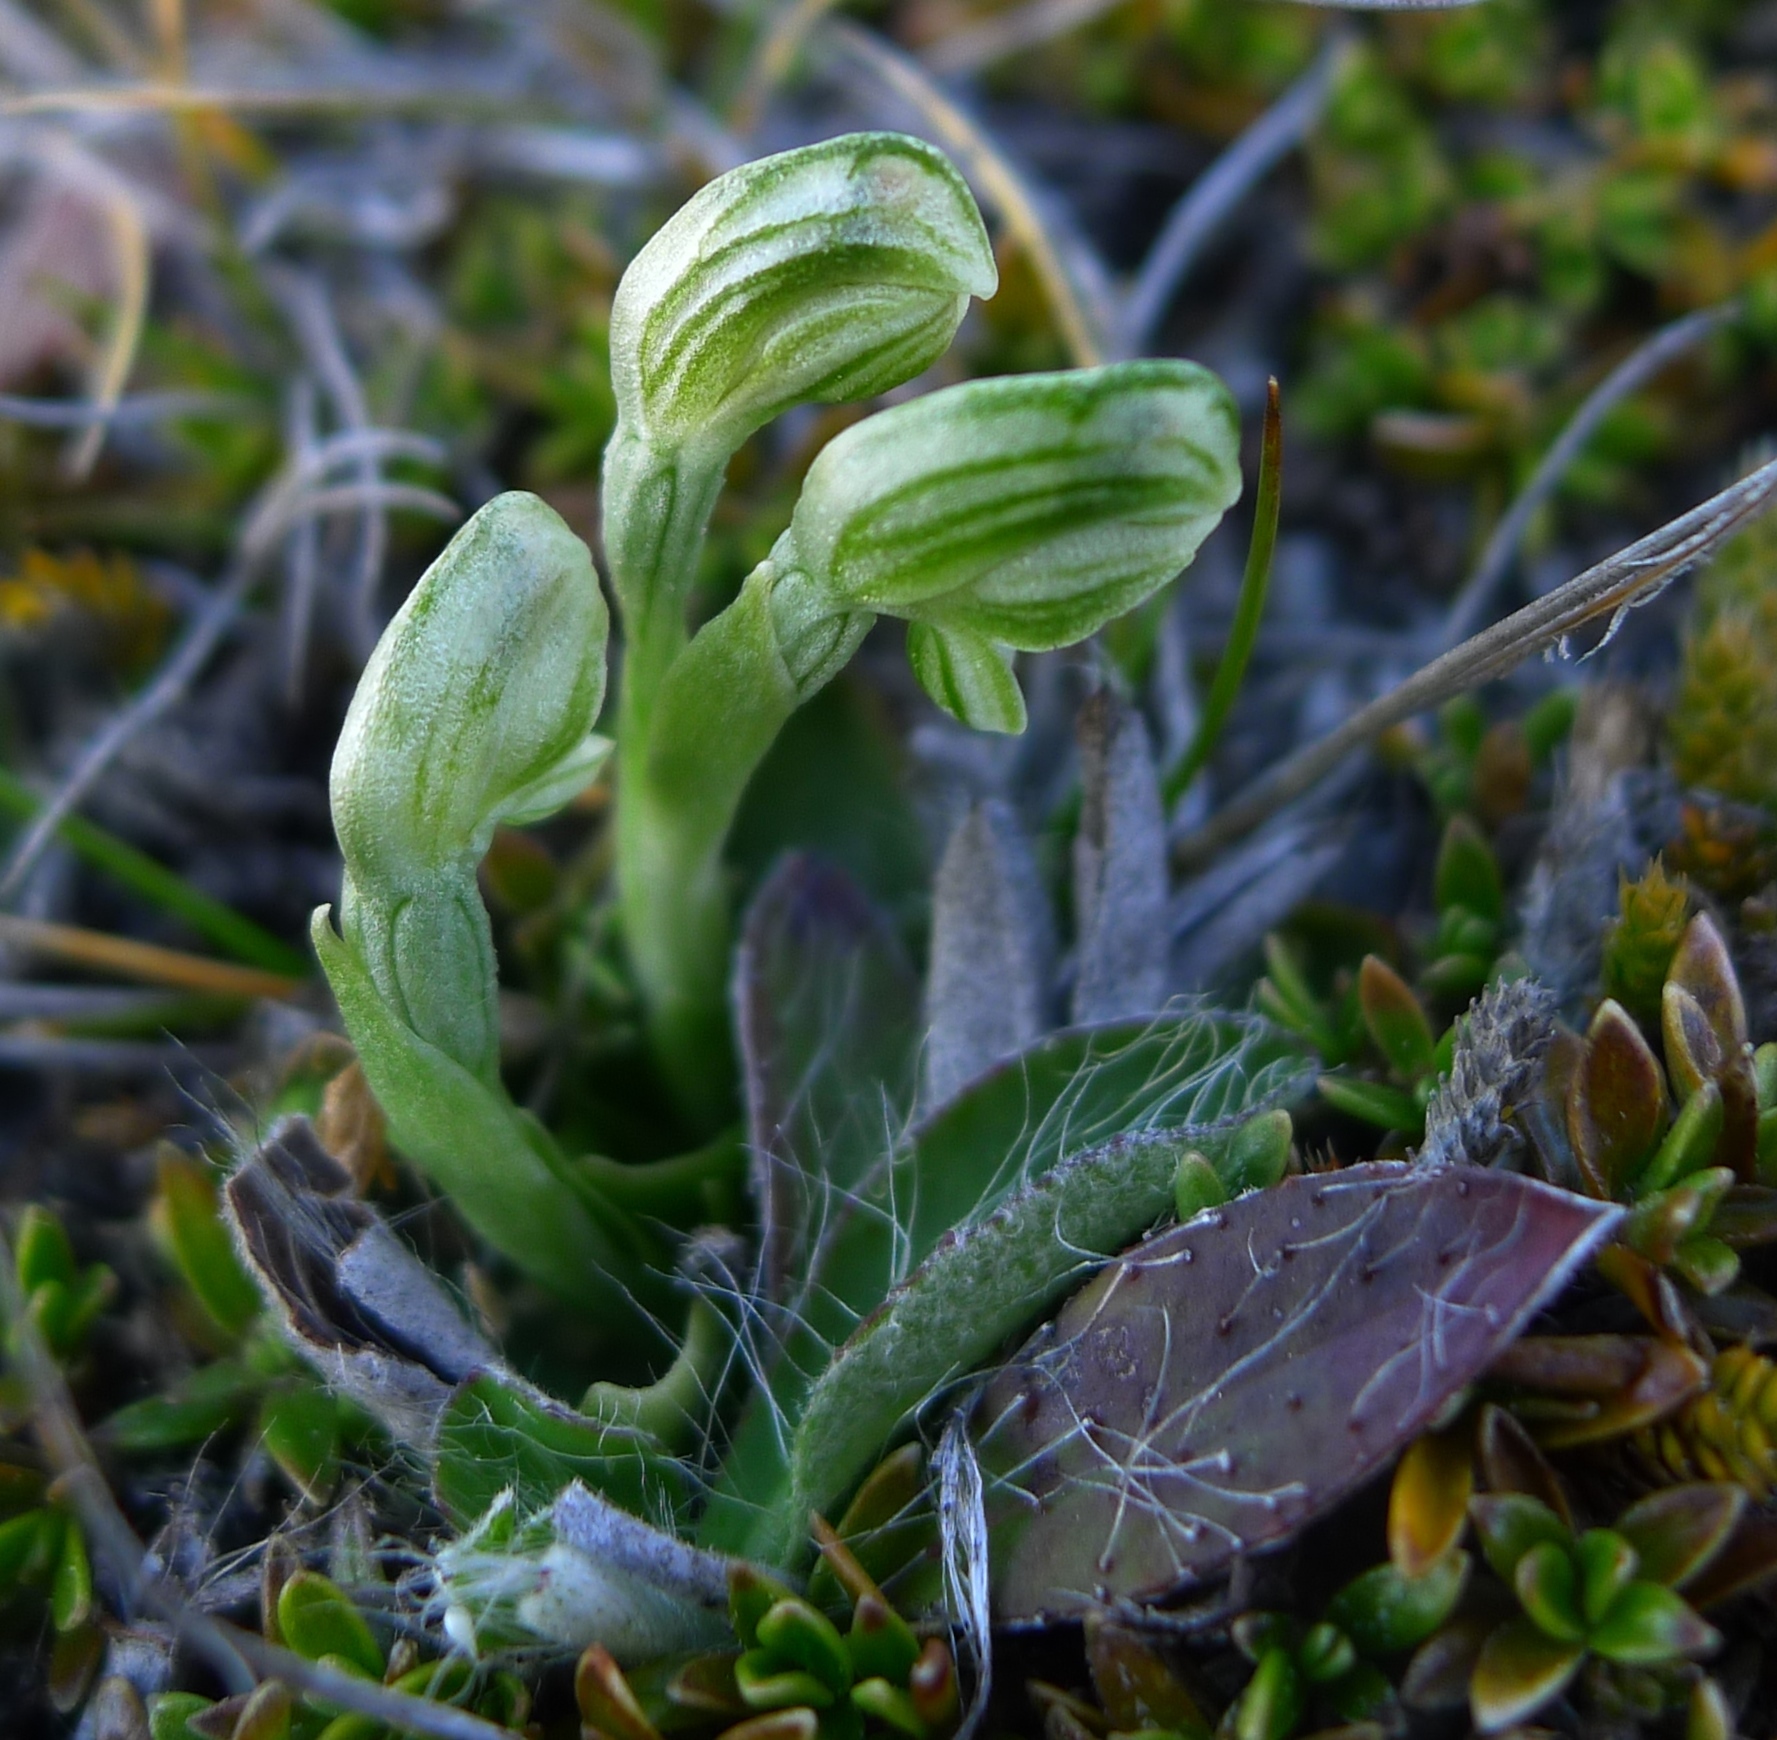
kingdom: Plantae
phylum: Tracheophyta
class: Liliopsida
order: Asparagales
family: Orchidaceae
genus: Pterostylis
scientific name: Pterostylis tanypoda
